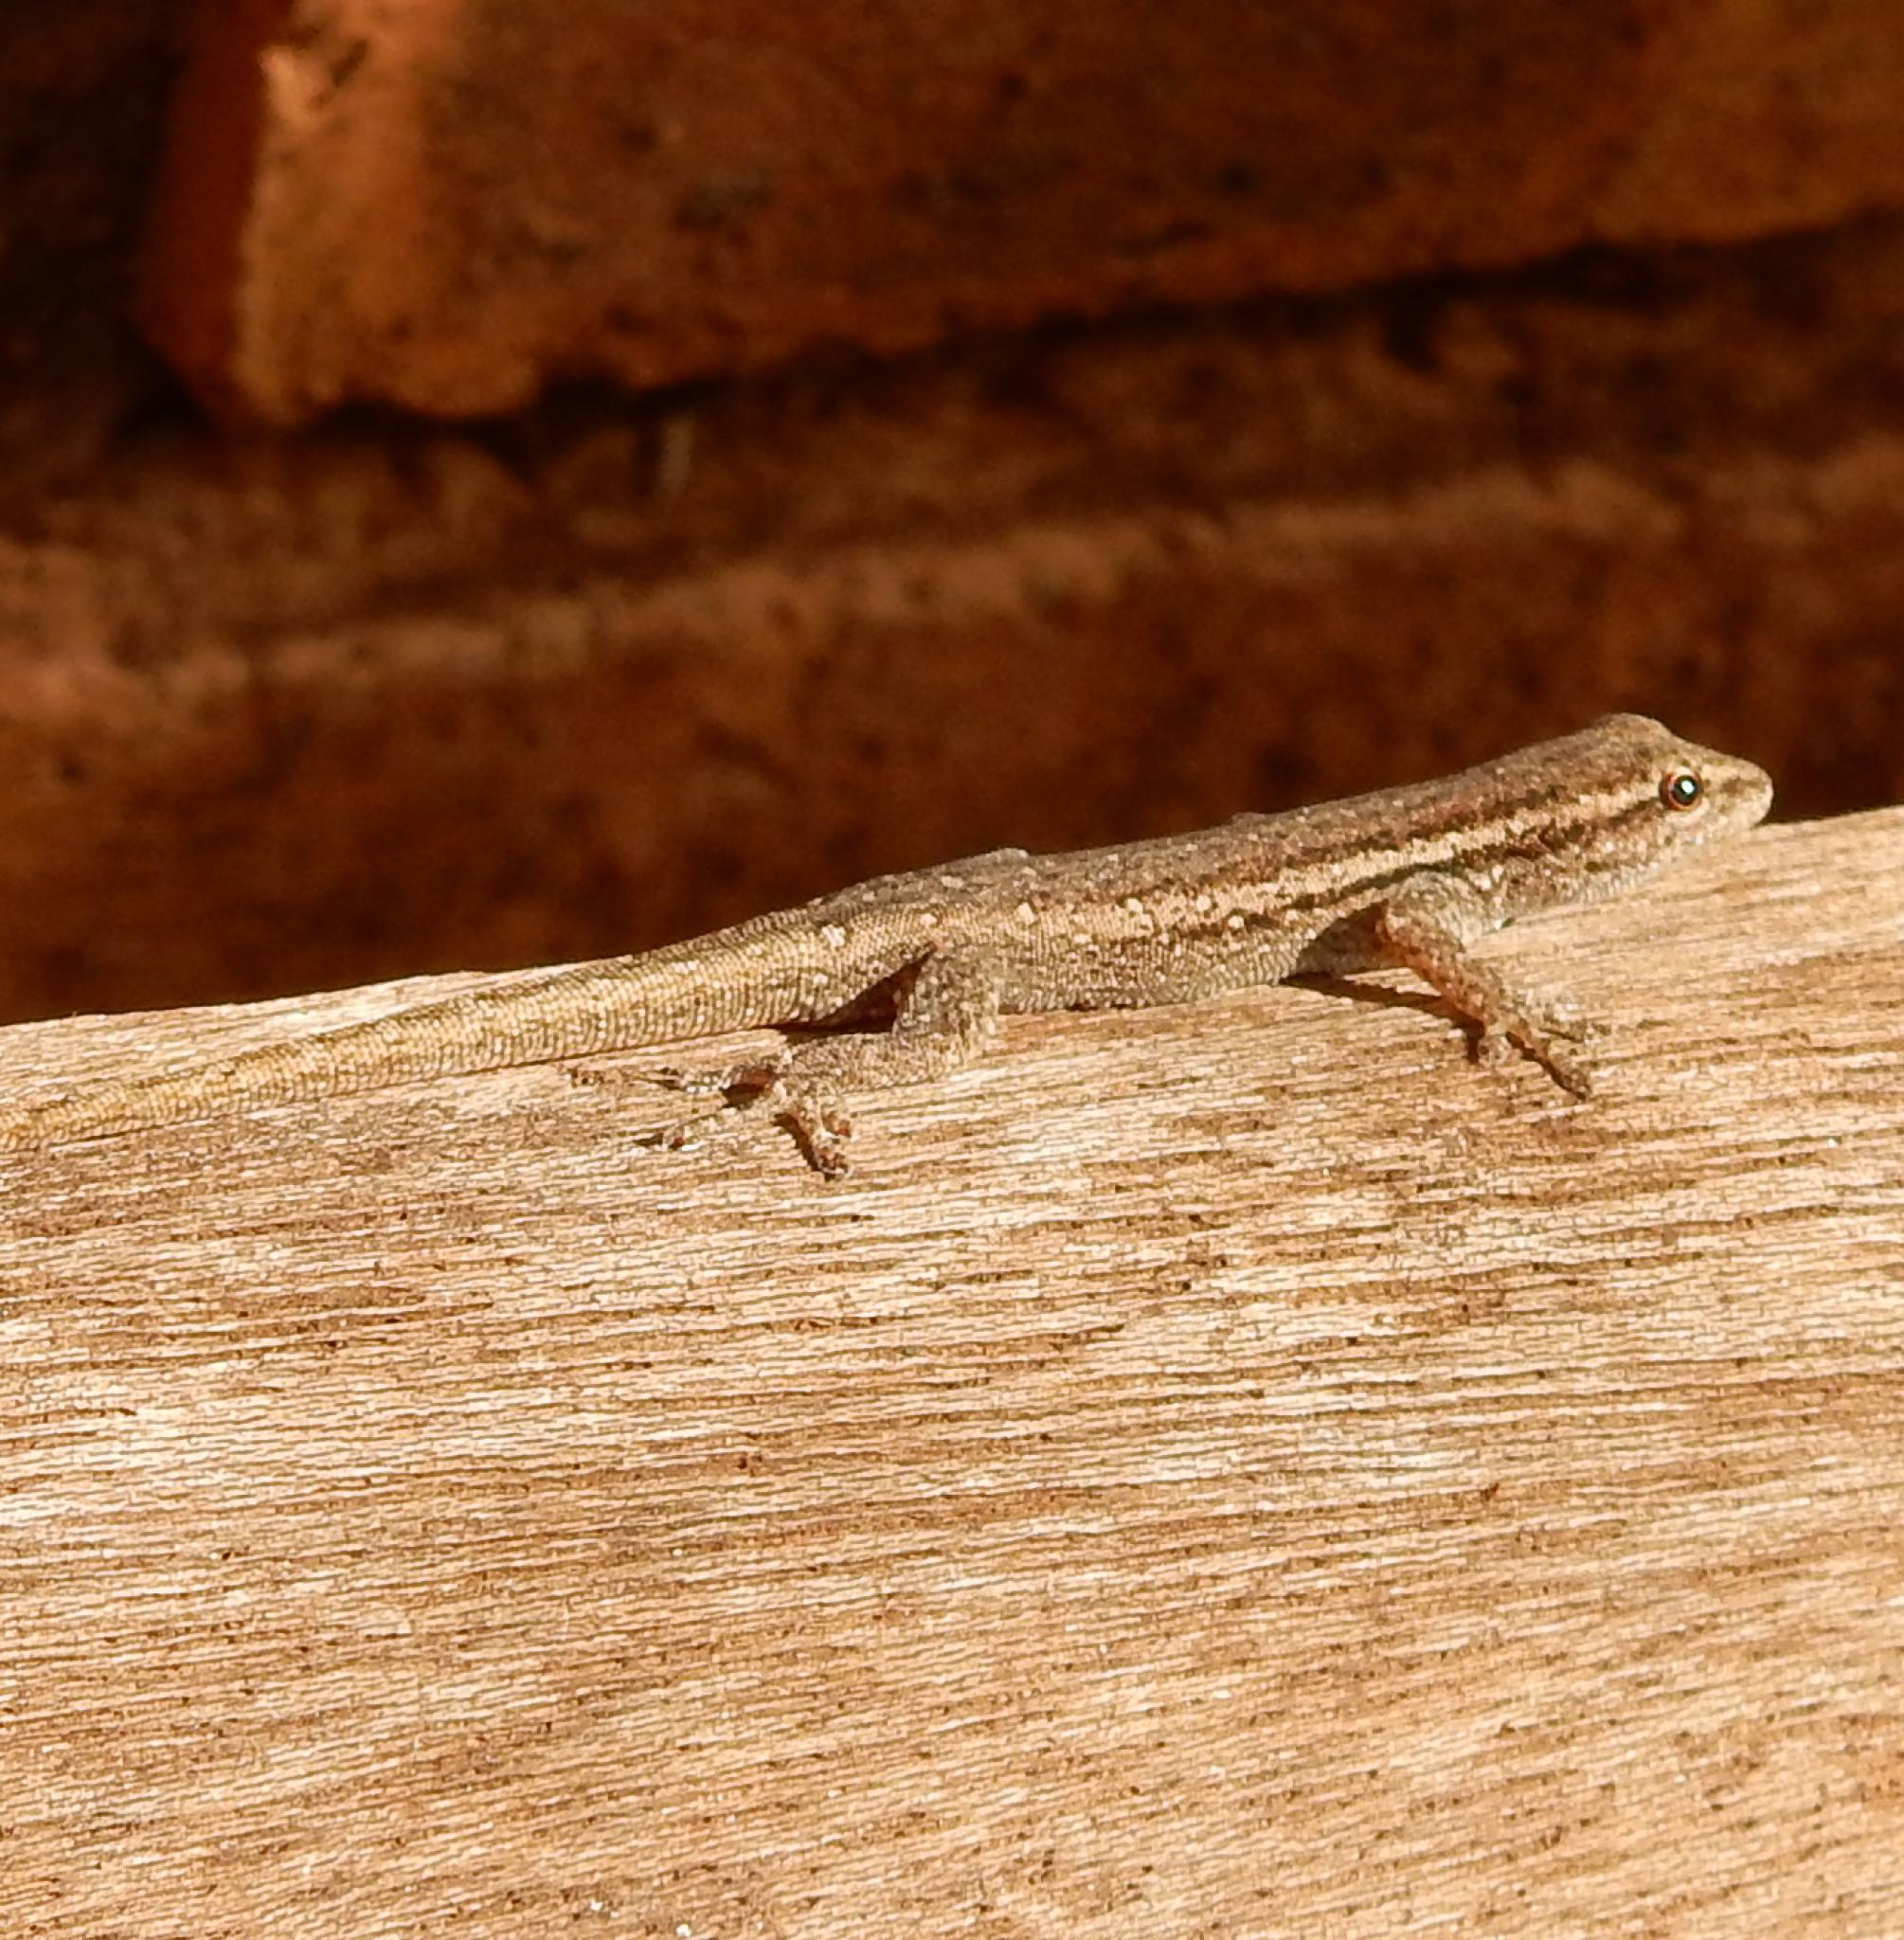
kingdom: Animalia
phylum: Chordata
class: Squamata
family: Gekkonidae
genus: Lygodactylus
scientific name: Lygodactylus capensis
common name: Cape dwarf gecko
